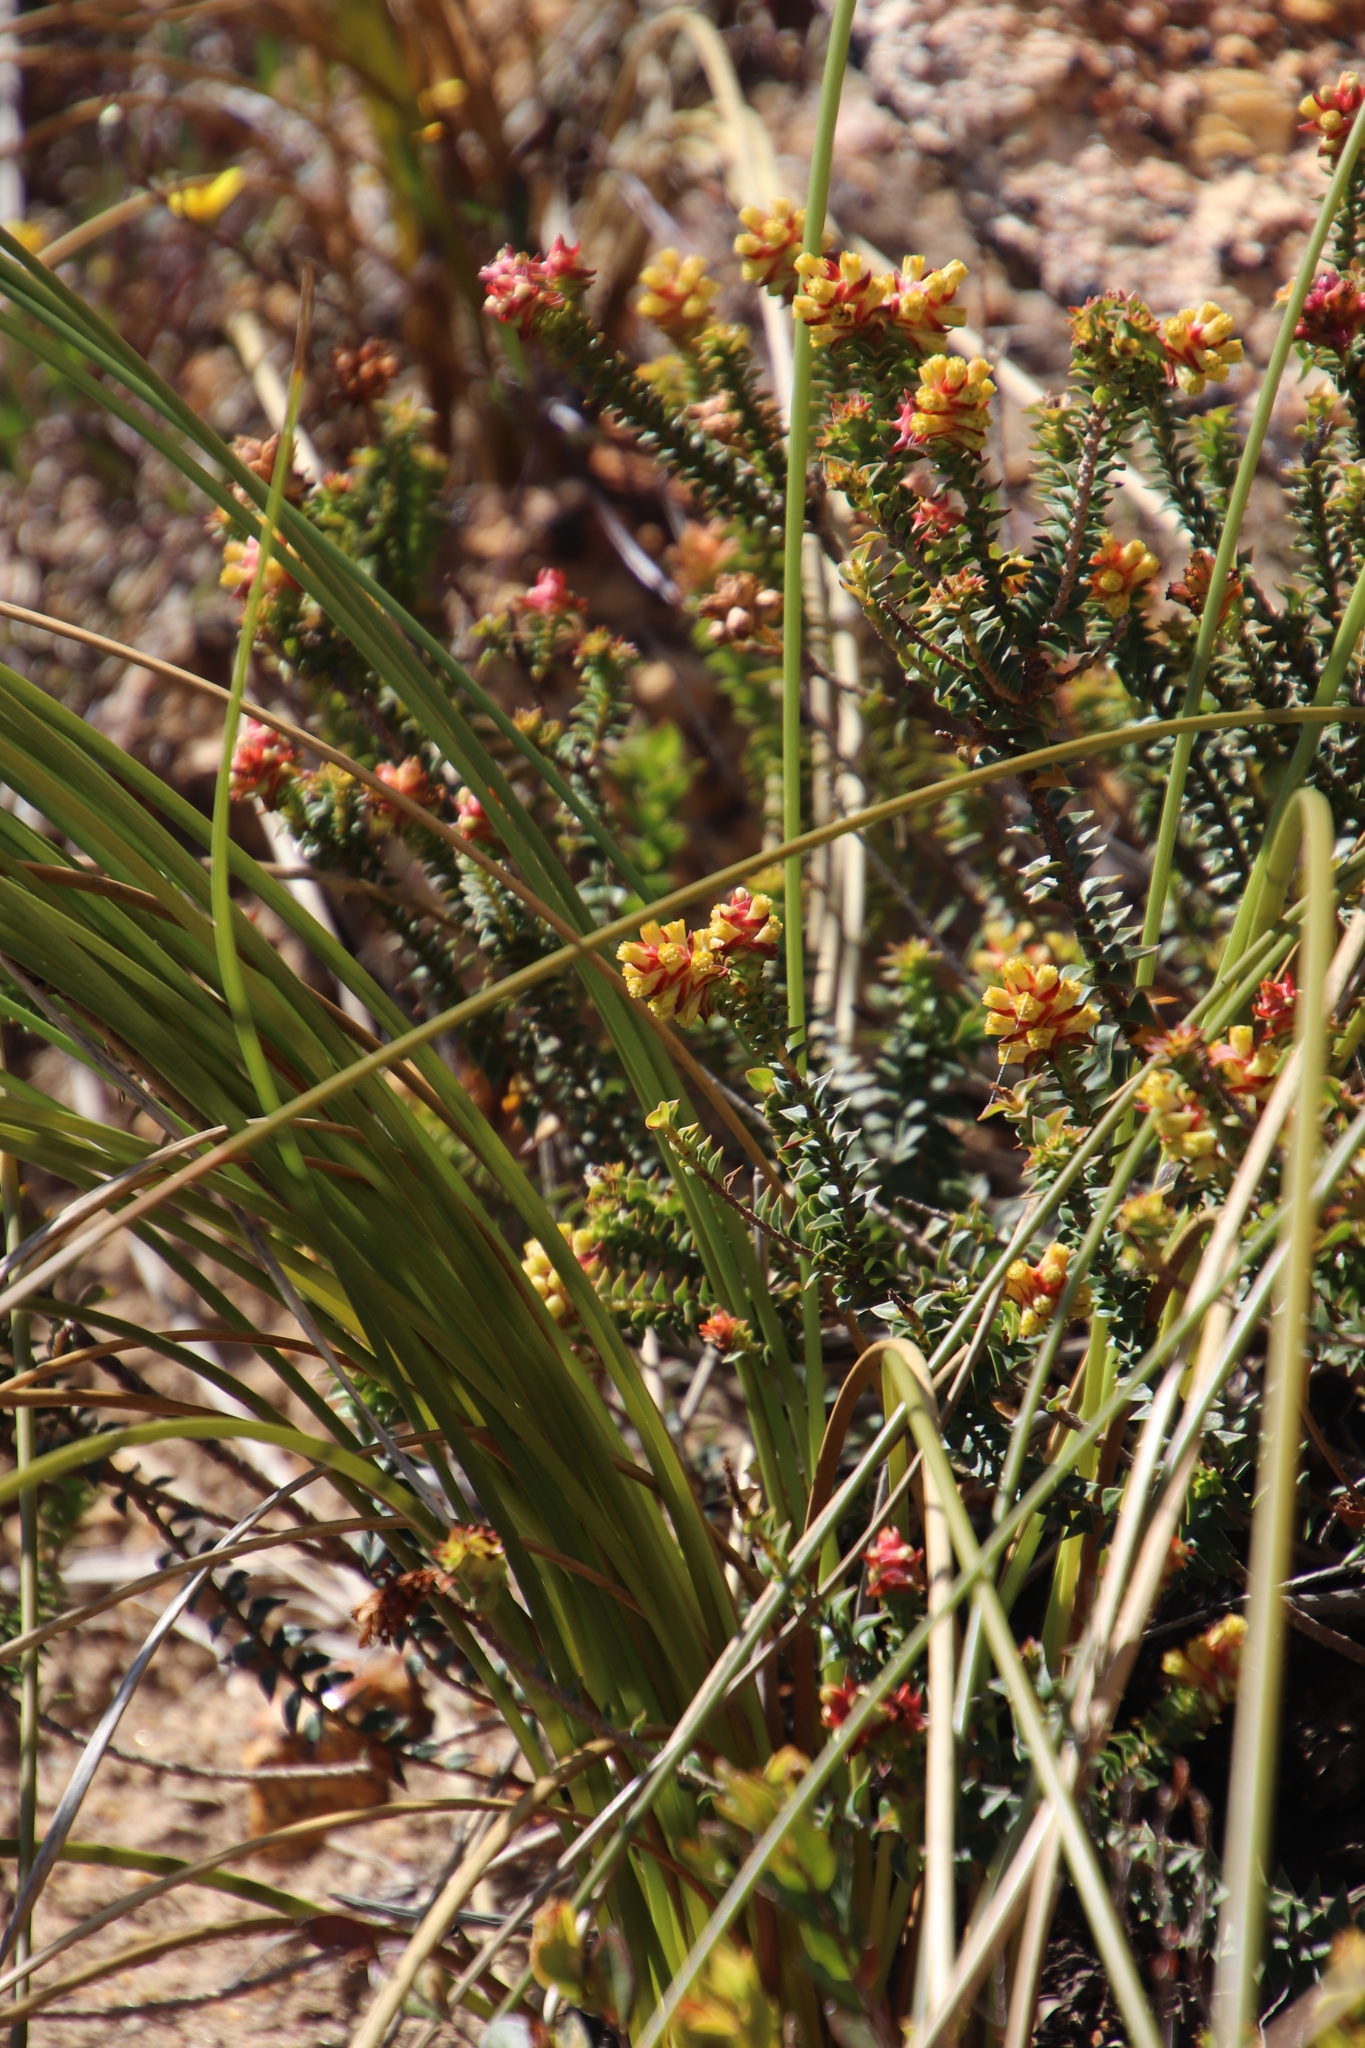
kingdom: Plantae
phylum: Tracheophyta
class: Magnoliopsida
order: Myrtales
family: Penaeaceae
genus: Penaea
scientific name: Penaea mucronata
